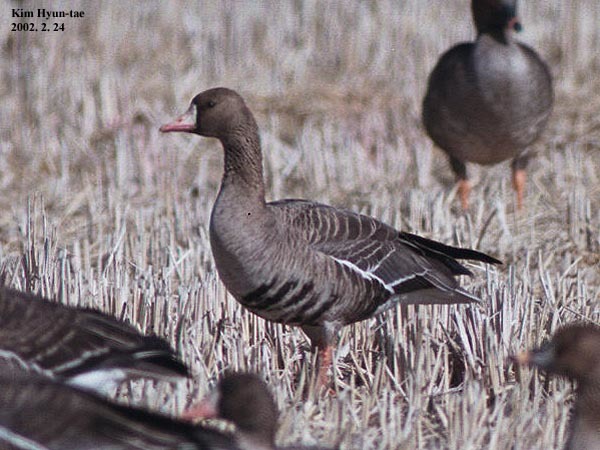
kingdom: Animalia
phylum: Chordata
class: Aves
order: Anseriformes
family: Anatidae
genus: Anser
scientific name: Anser albifrons
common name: Greater white-fronted goose
